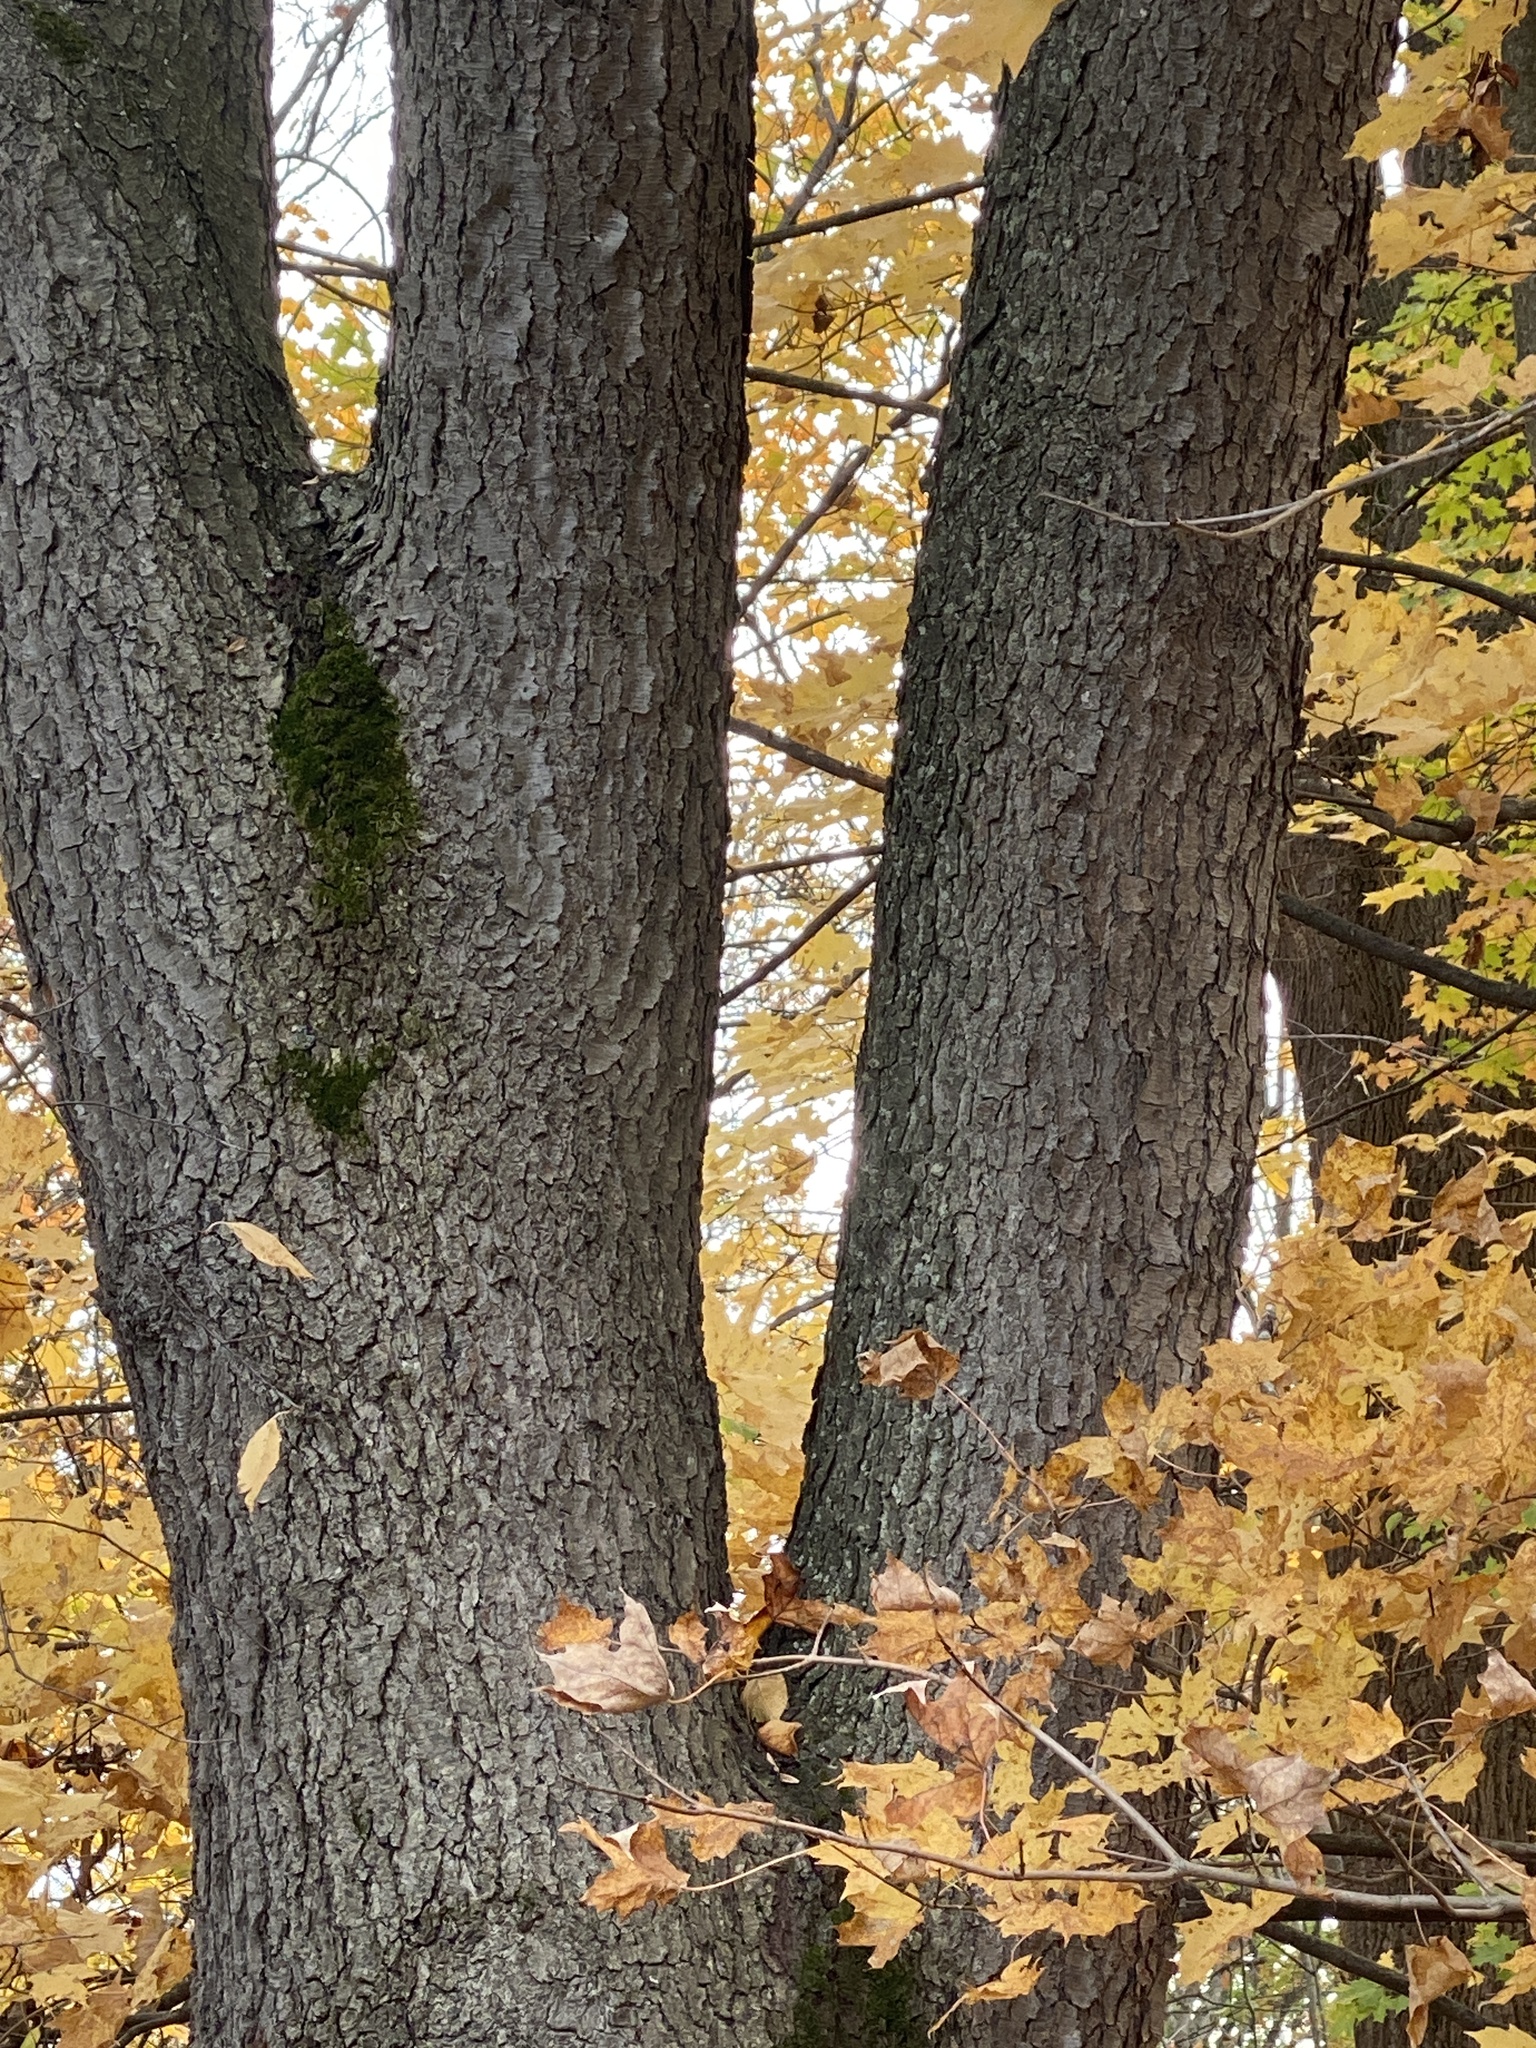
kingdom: Plantae
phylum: Tracheophyta
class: Magnoliopsida
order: Rosales
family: Rosaceae
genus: Prunus
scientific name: Prunus serotina
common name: Black cherry
